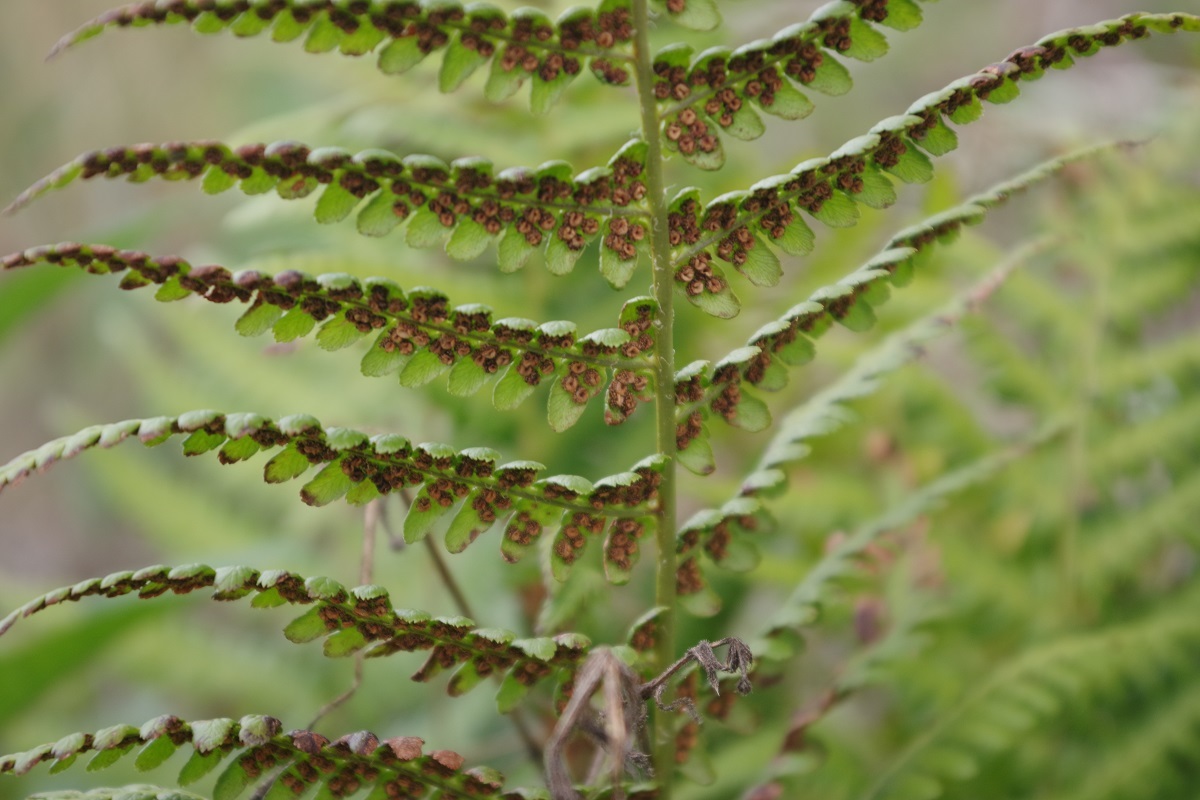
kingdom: Plantae
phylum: Tracheophyta
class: Polypodiopsida
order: Polypodiales
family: Dryopteridaceae
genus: Dryopteris
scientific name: Dryopteris filix-mas
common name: Male fern
